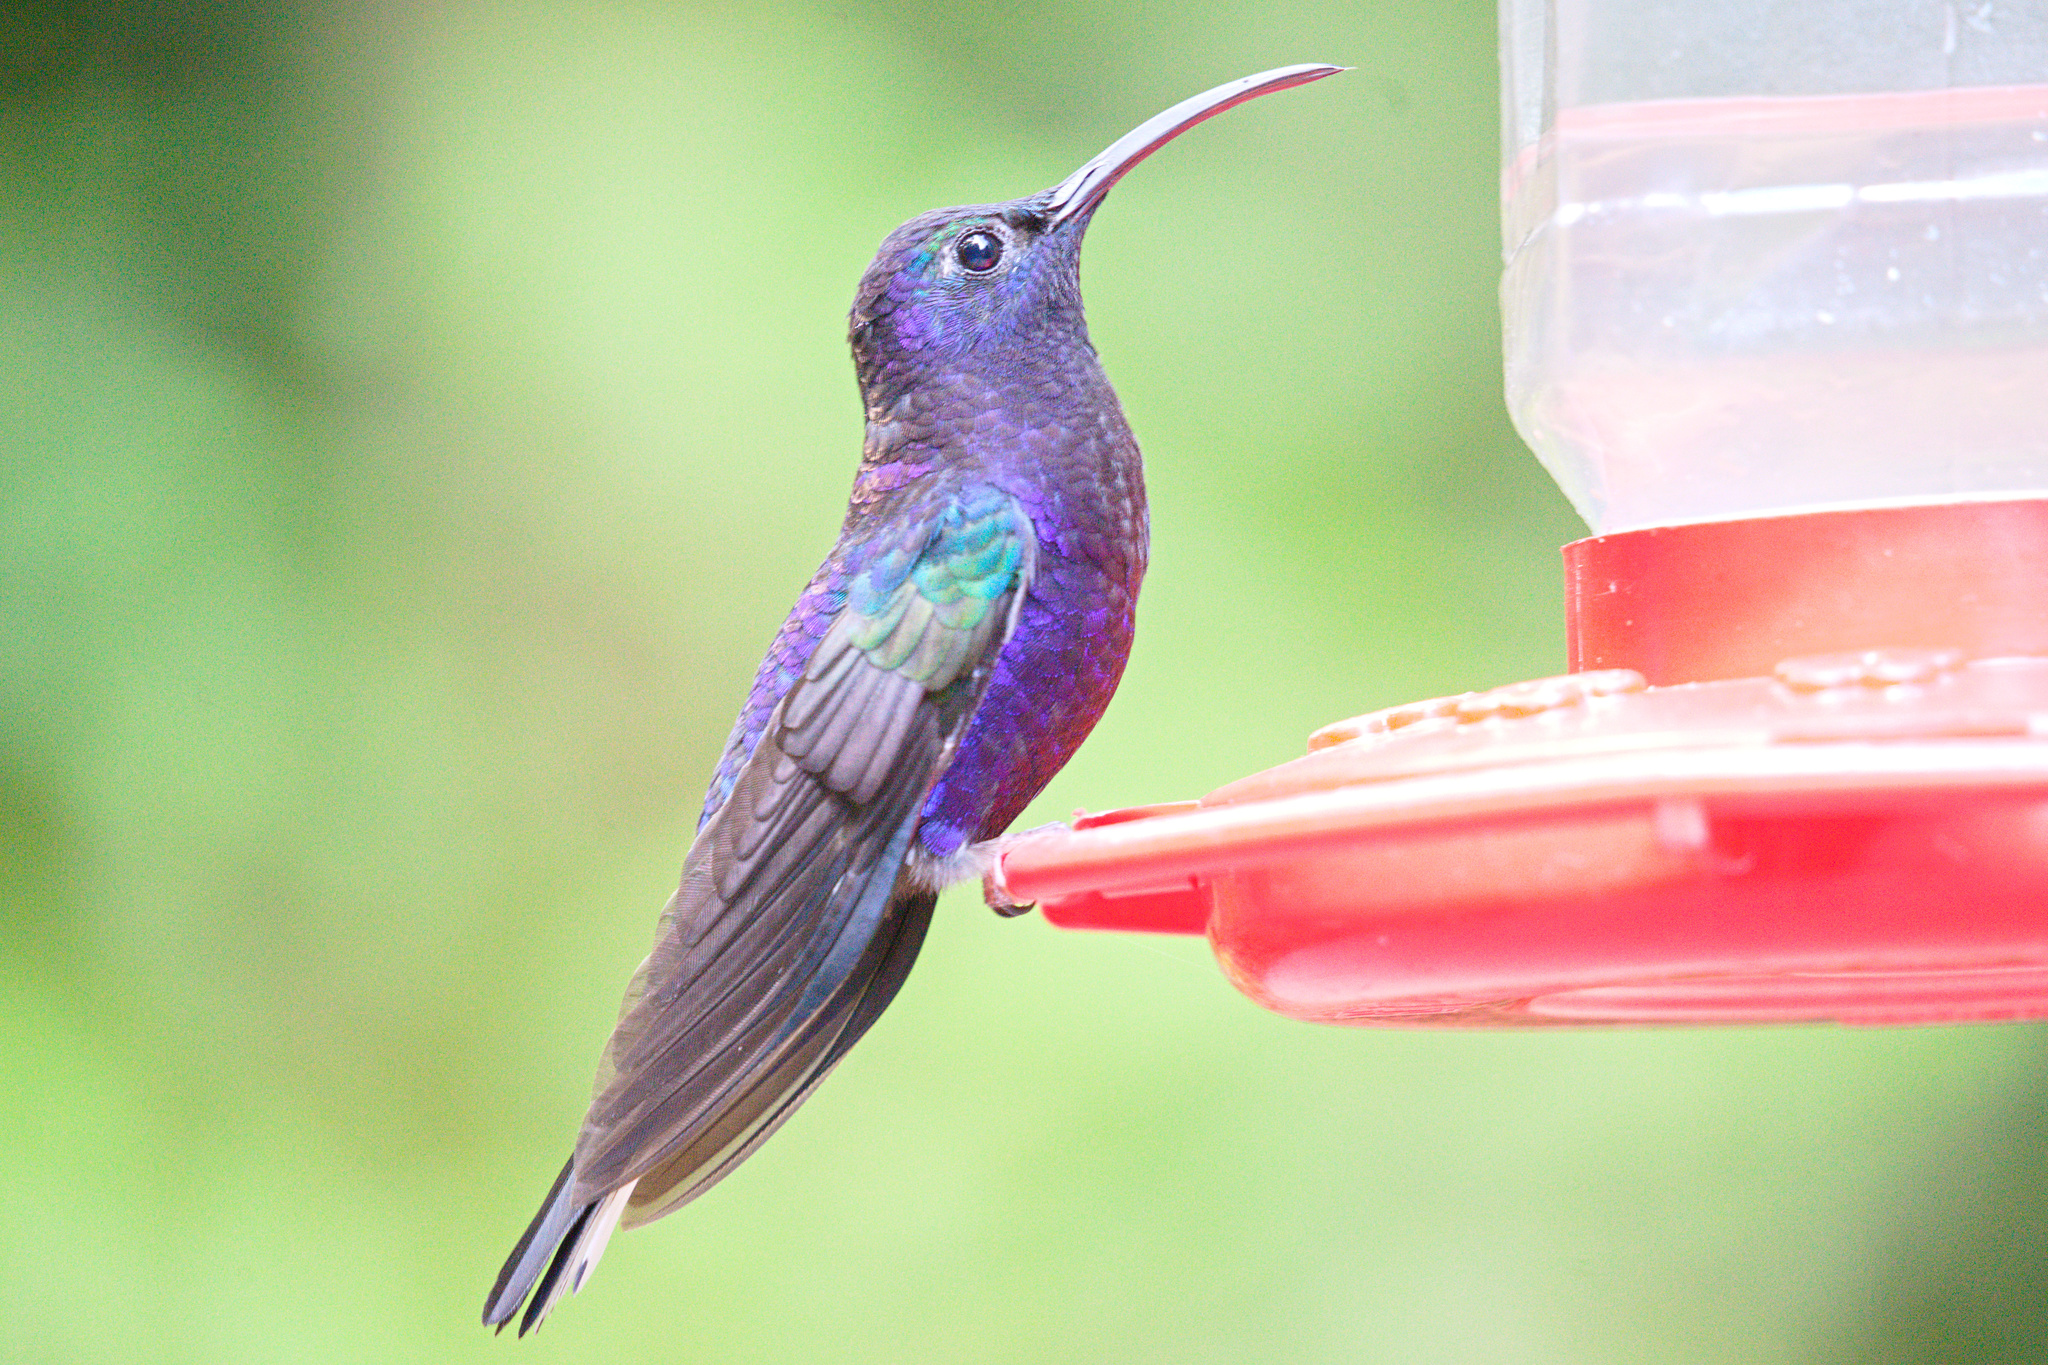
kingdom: Animalia
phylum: Chordata
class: Aves
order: Apodiformes
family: Trochilidae
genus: Campylopterus
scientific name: Campylopterus hemileucurus
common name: Violet sabrewing
